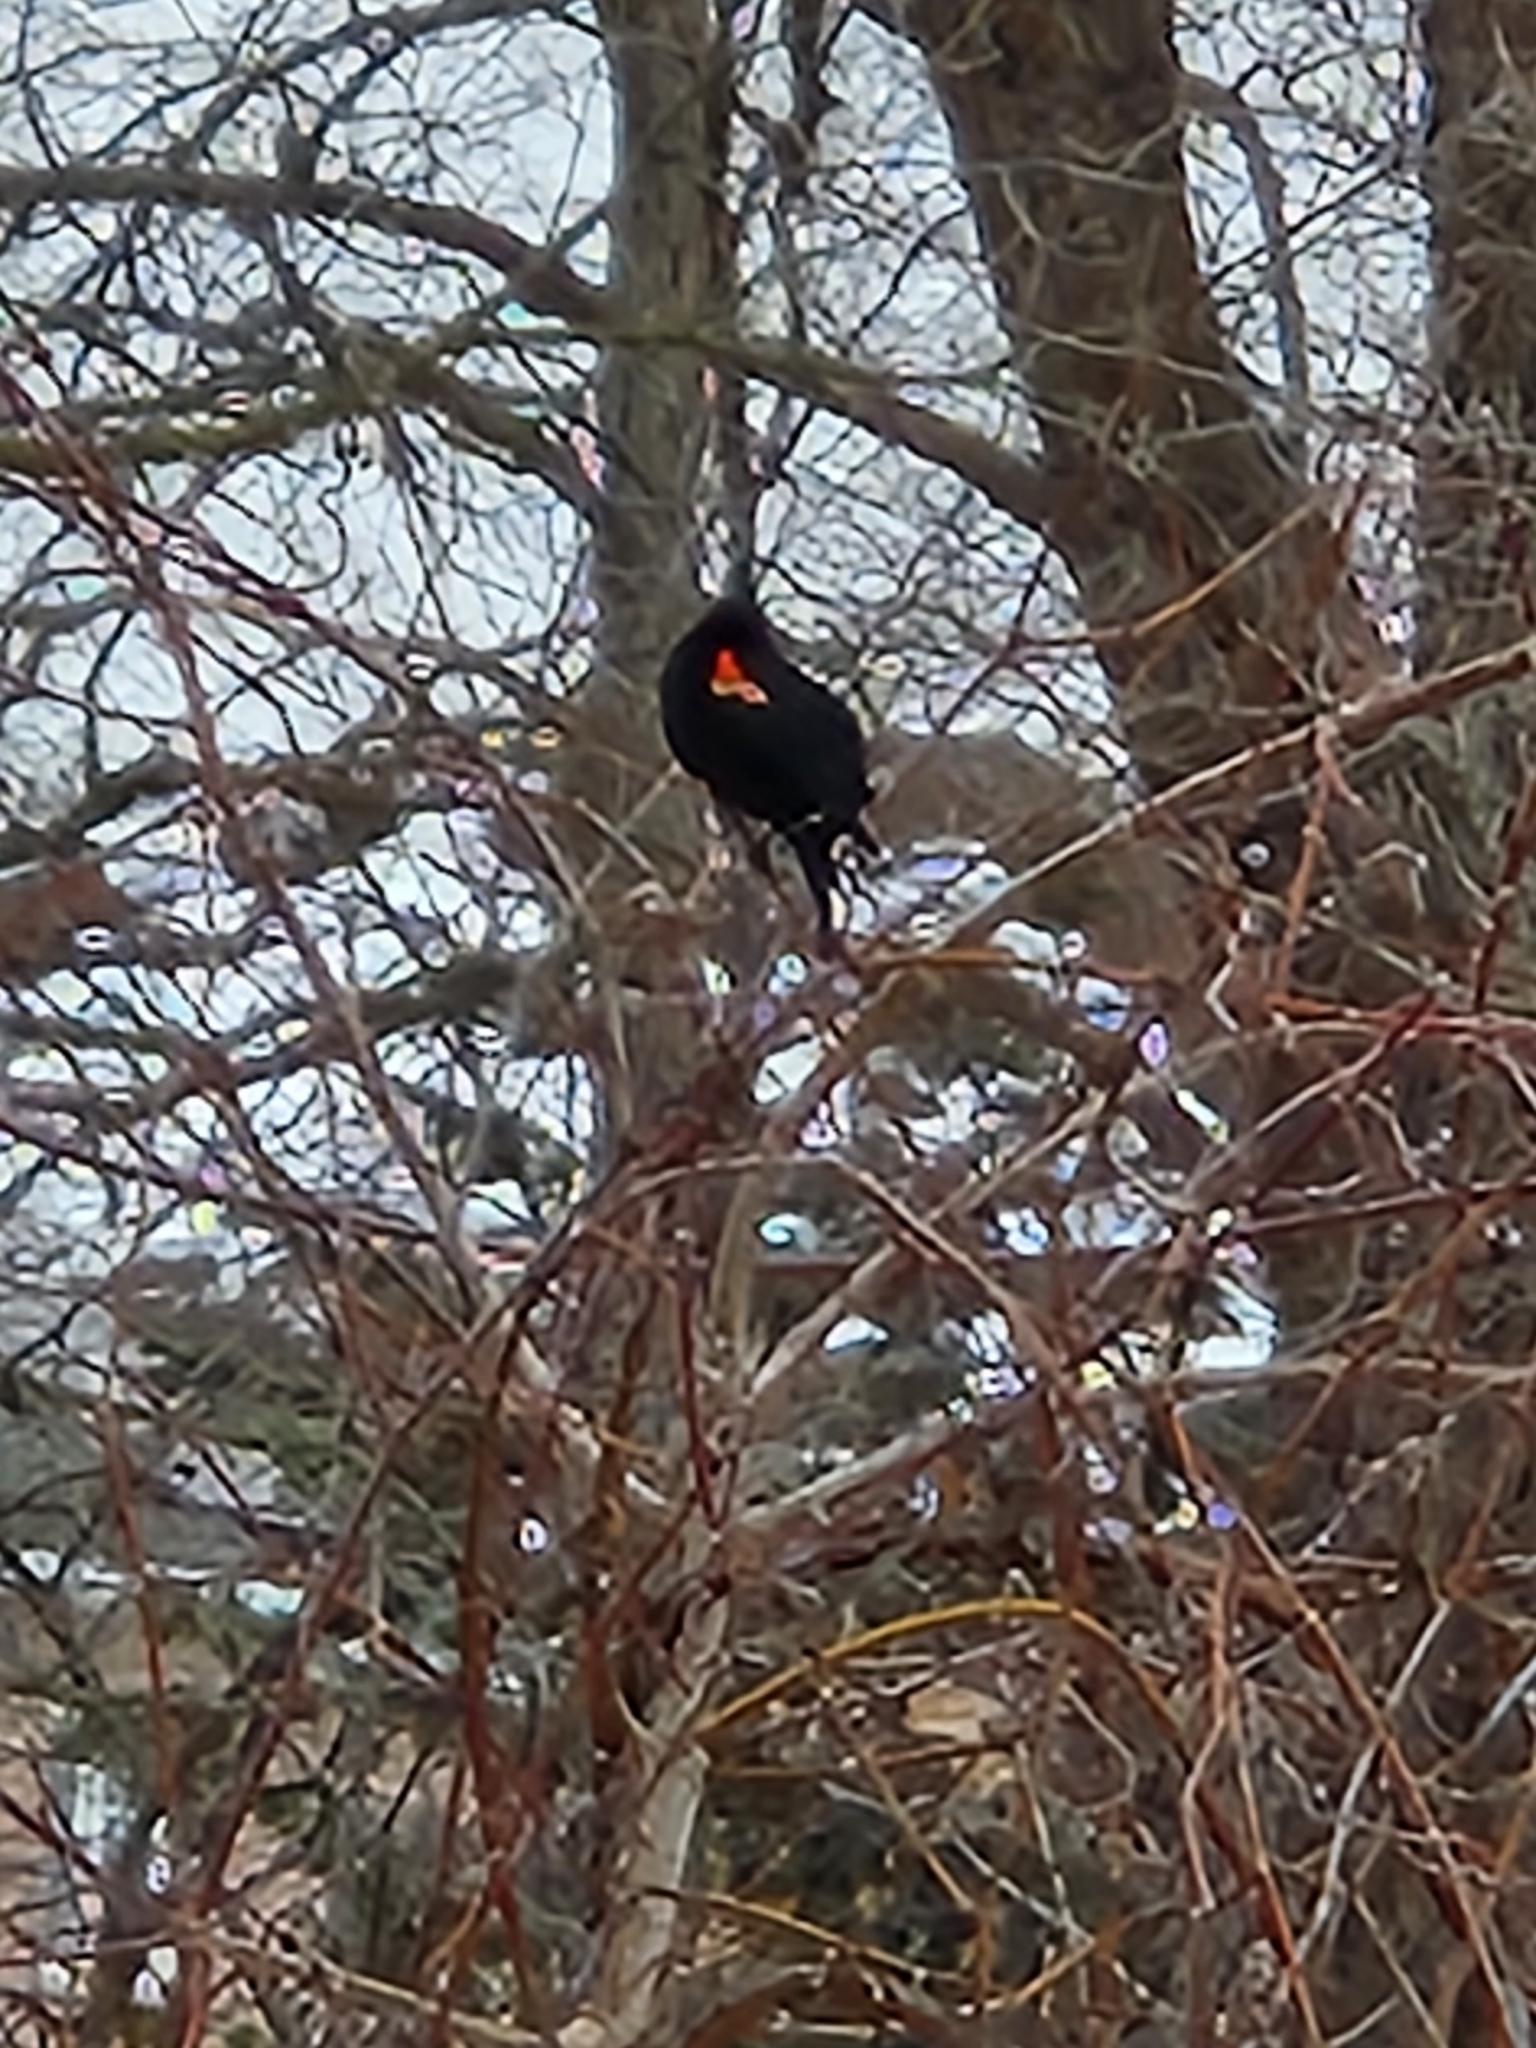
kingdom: Animalia
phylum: Chordata
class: Aves
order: Passeriformes
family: Icteridae
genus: Agelaius
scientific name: Agelaius phoeniceus
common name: Red-winged blackbird
